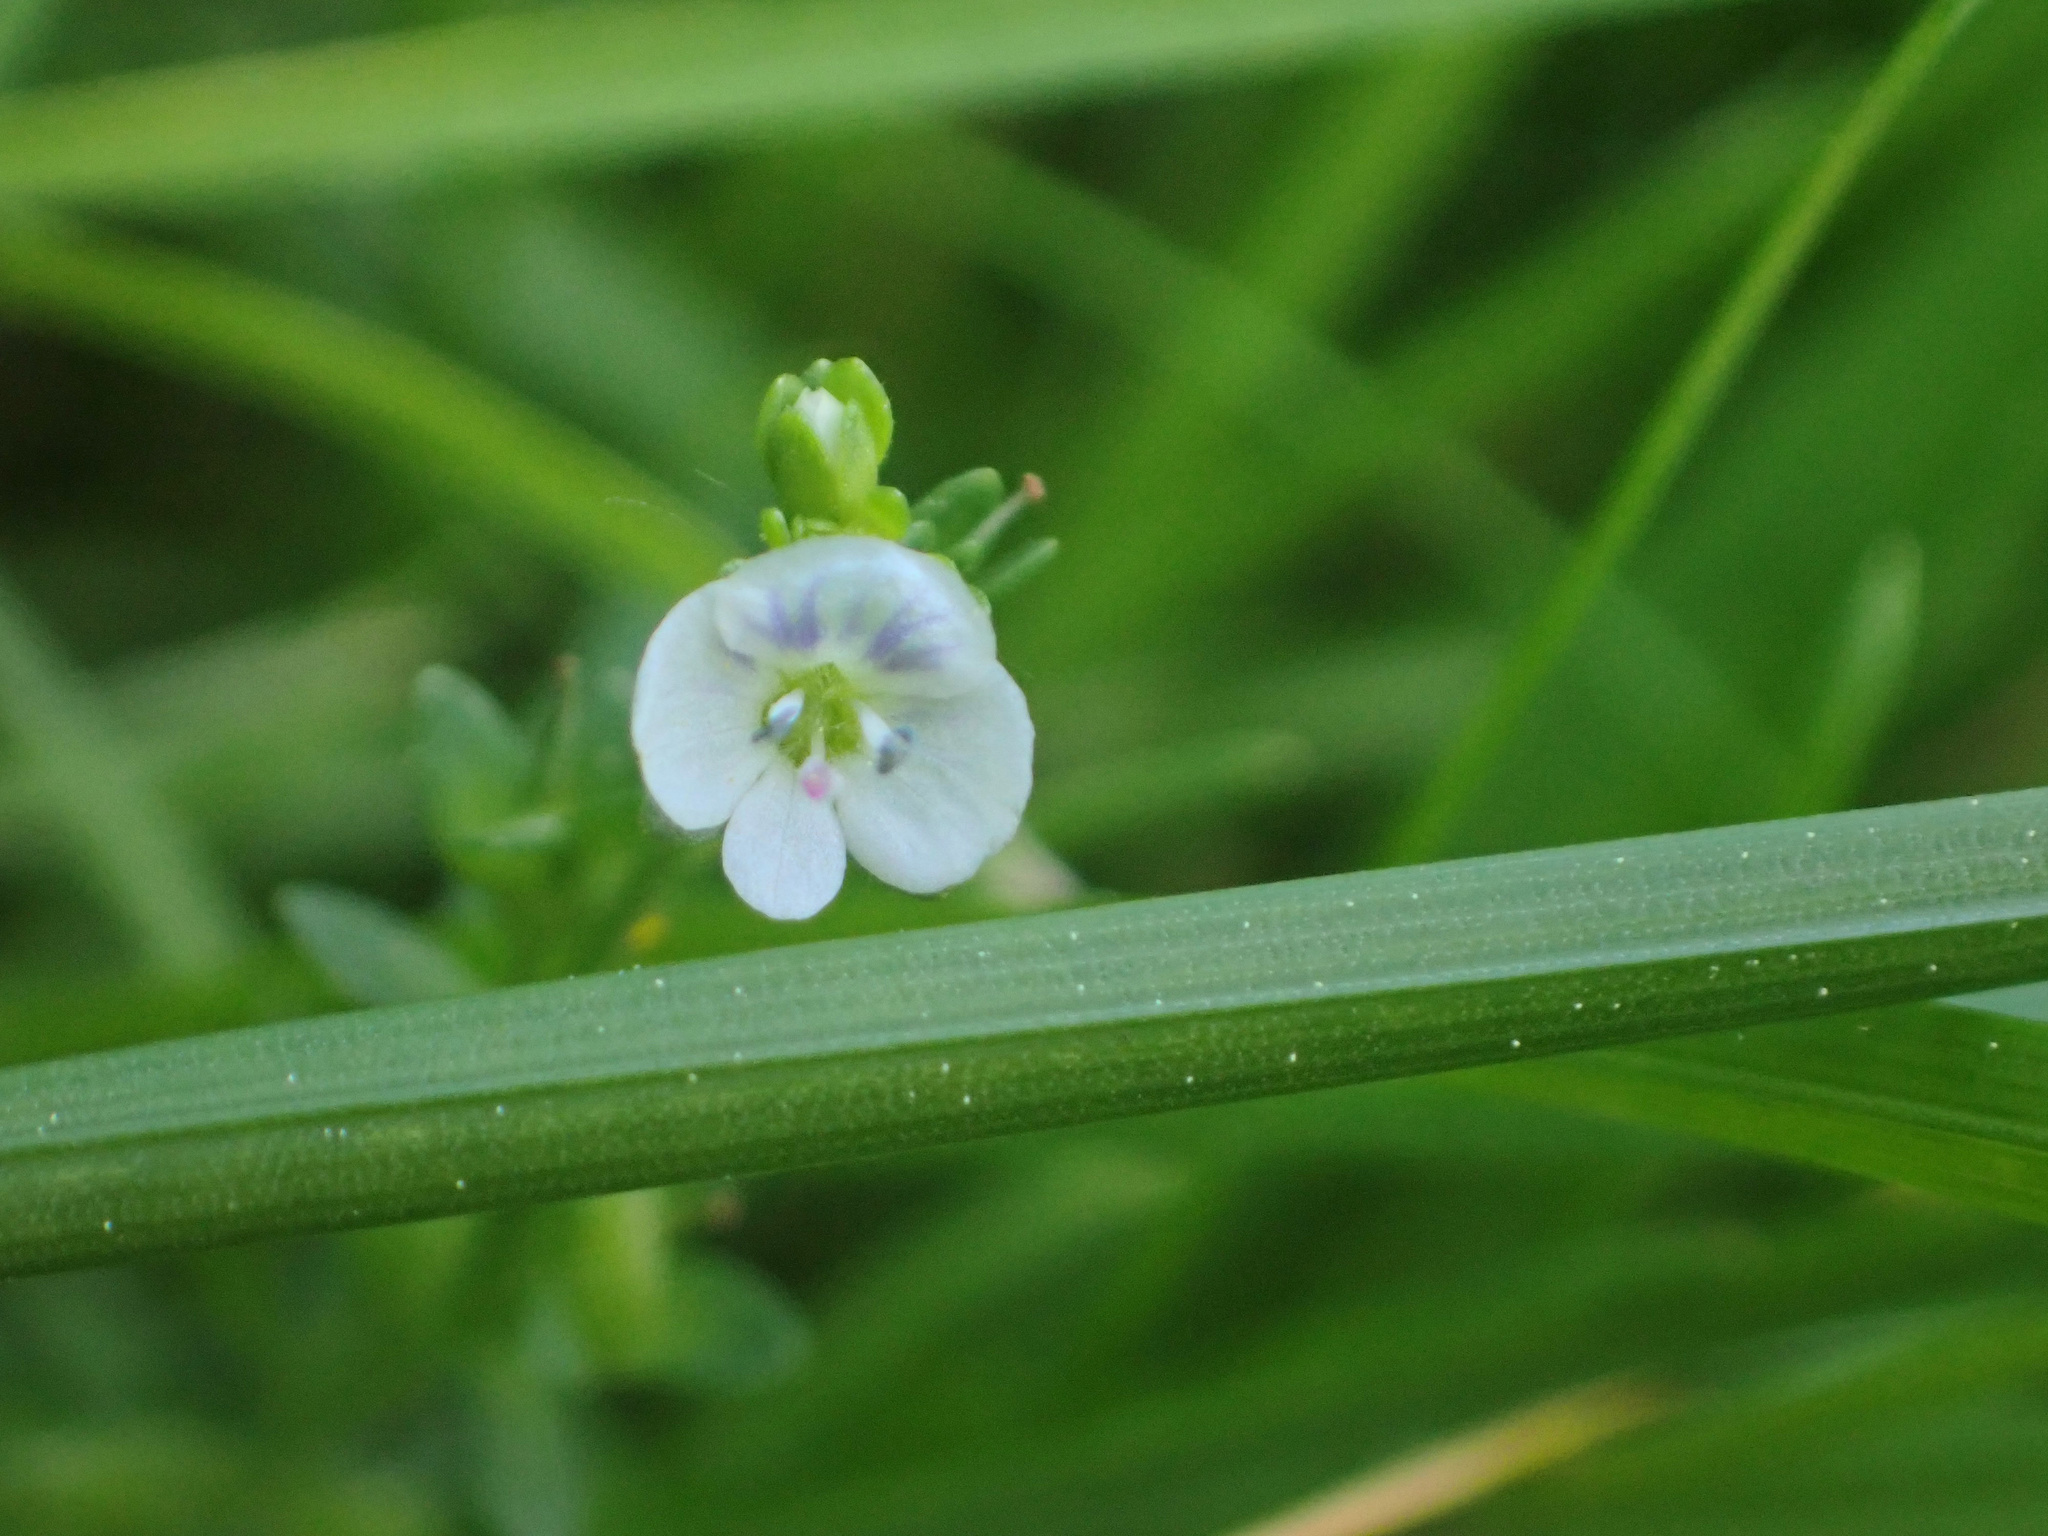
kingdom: Plantae
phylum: Tracheophyta
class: Magnoliopsida
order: Lamiales
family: Plantaginaceae
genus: Veronica
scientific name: Veronica serpyllifolia
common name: Thyme-leaved speedwell
